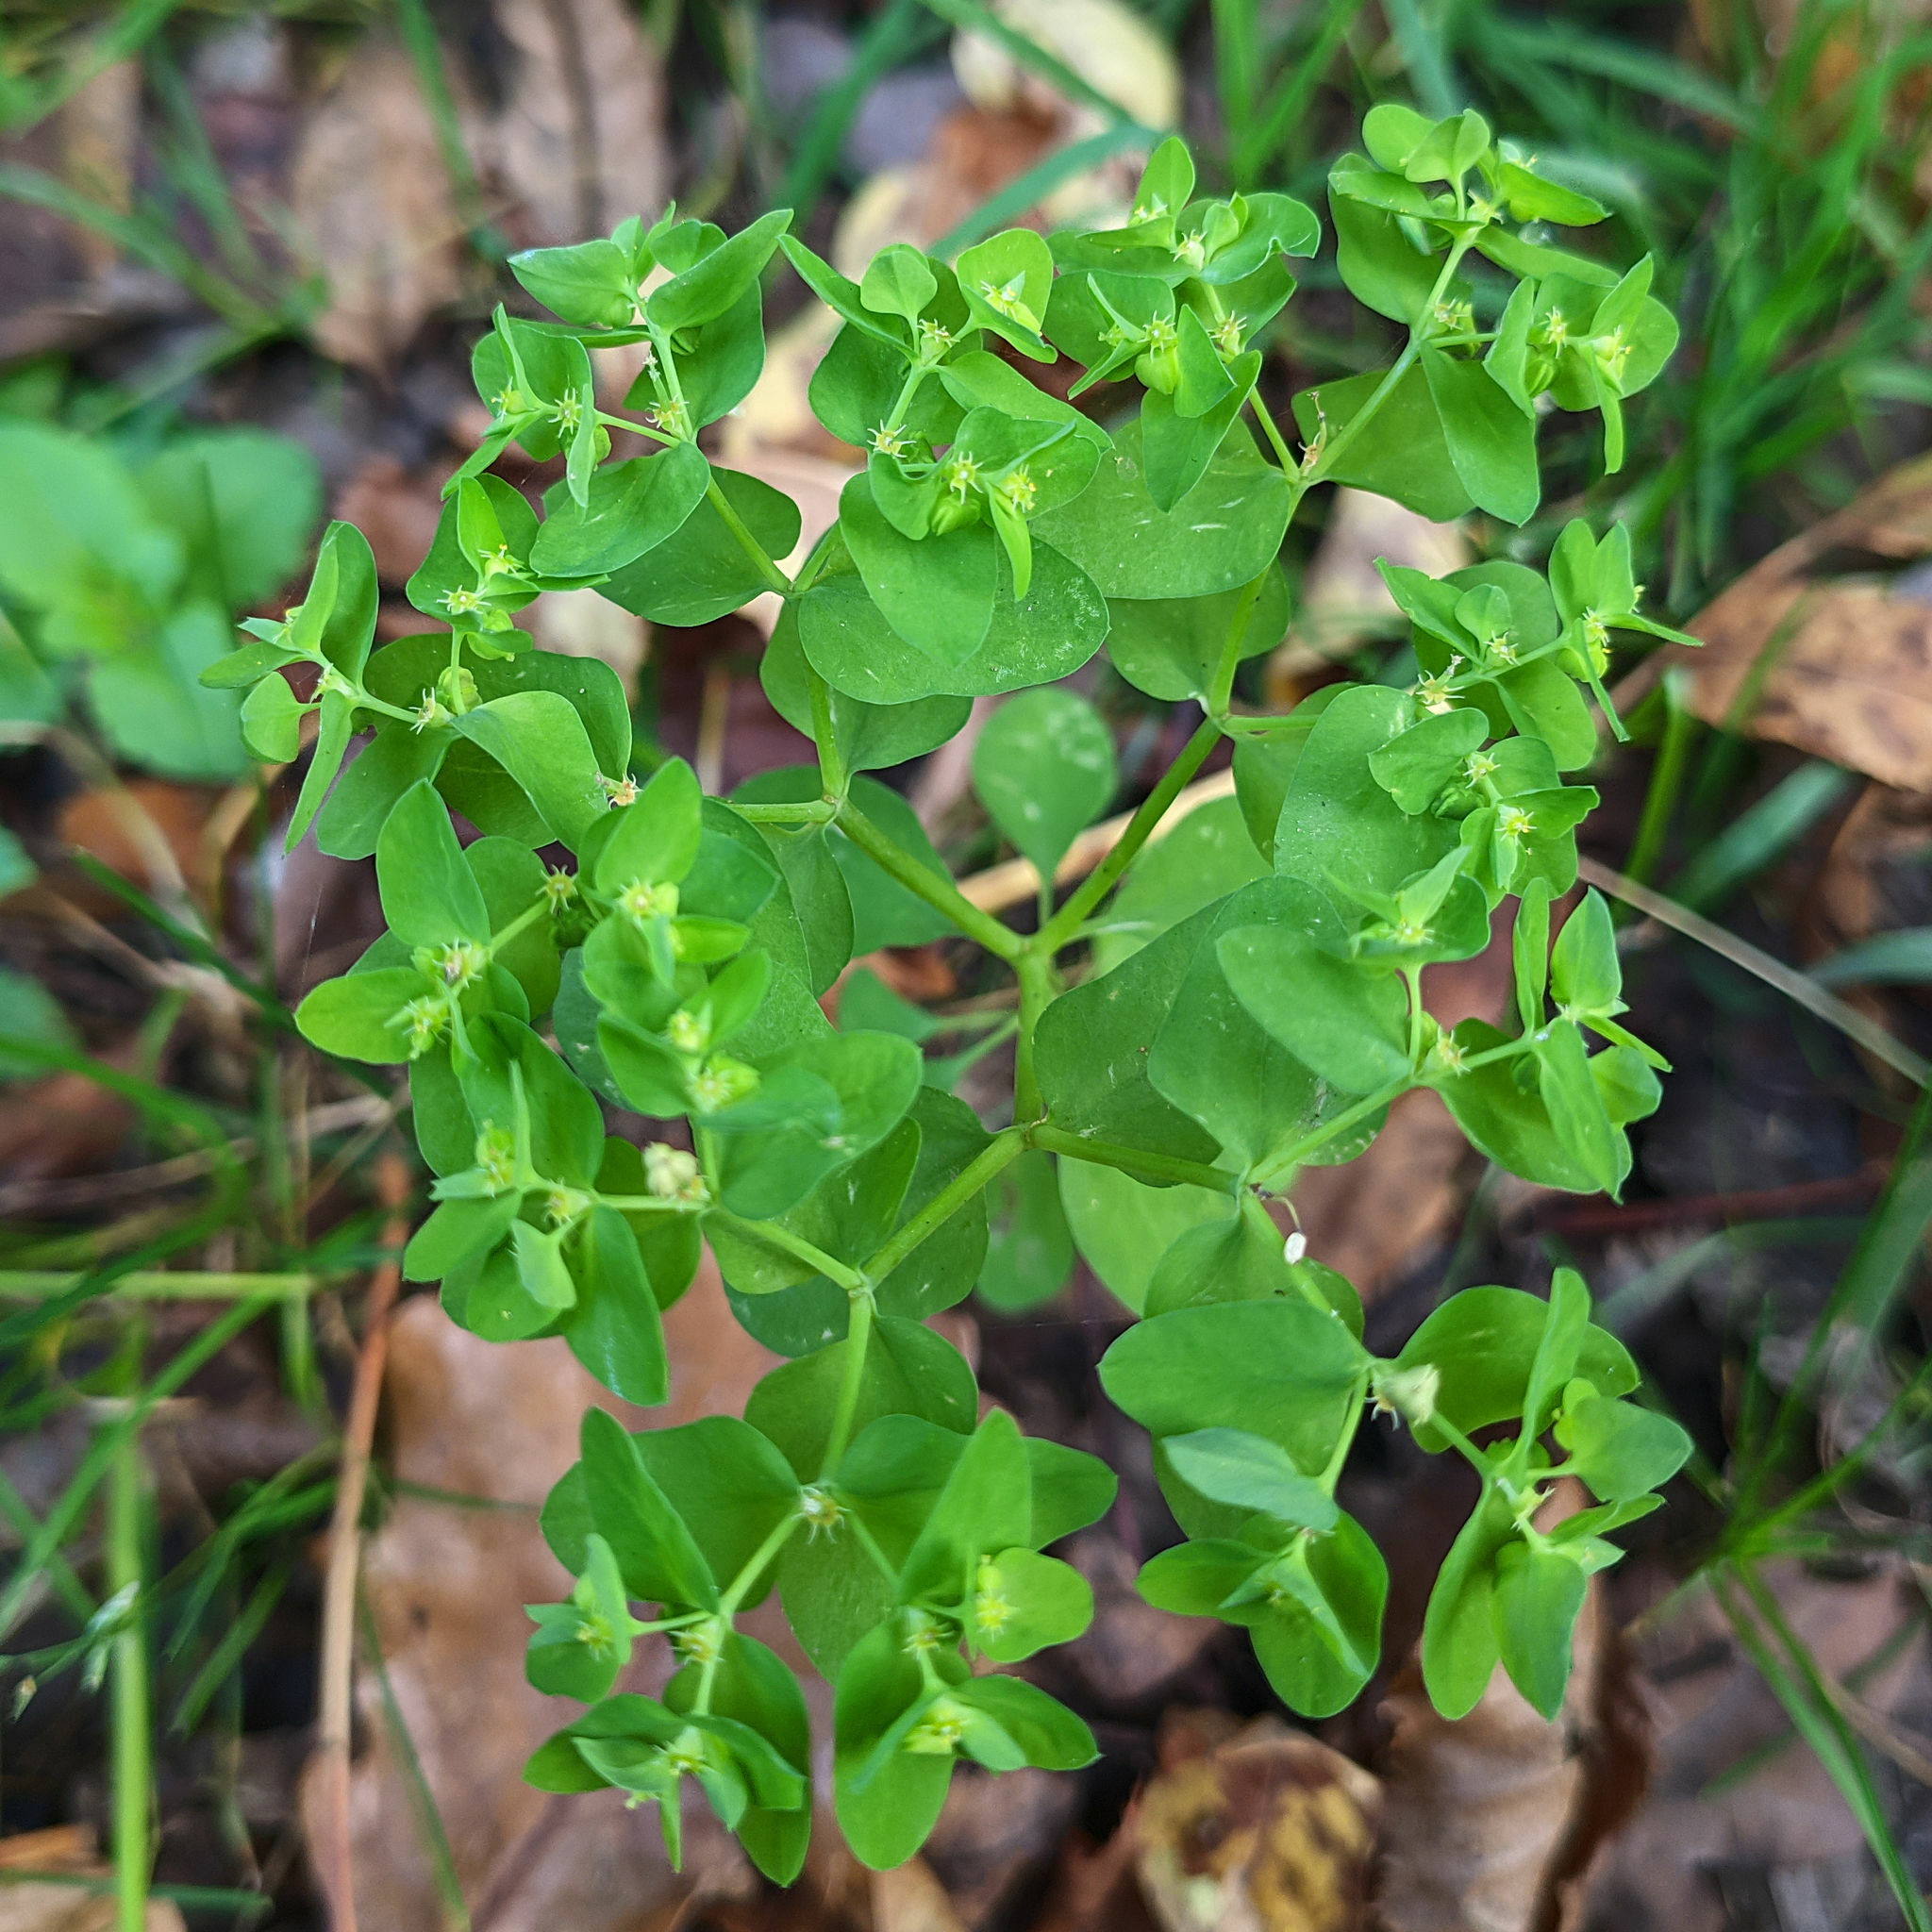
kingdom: Plantae
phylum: Tracheophyta
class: Magnoliopsida
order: Malpighiales
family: Euphorbiaceae
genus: Euphorbia
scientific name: Euphorbia peplus
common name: Petty spurge
